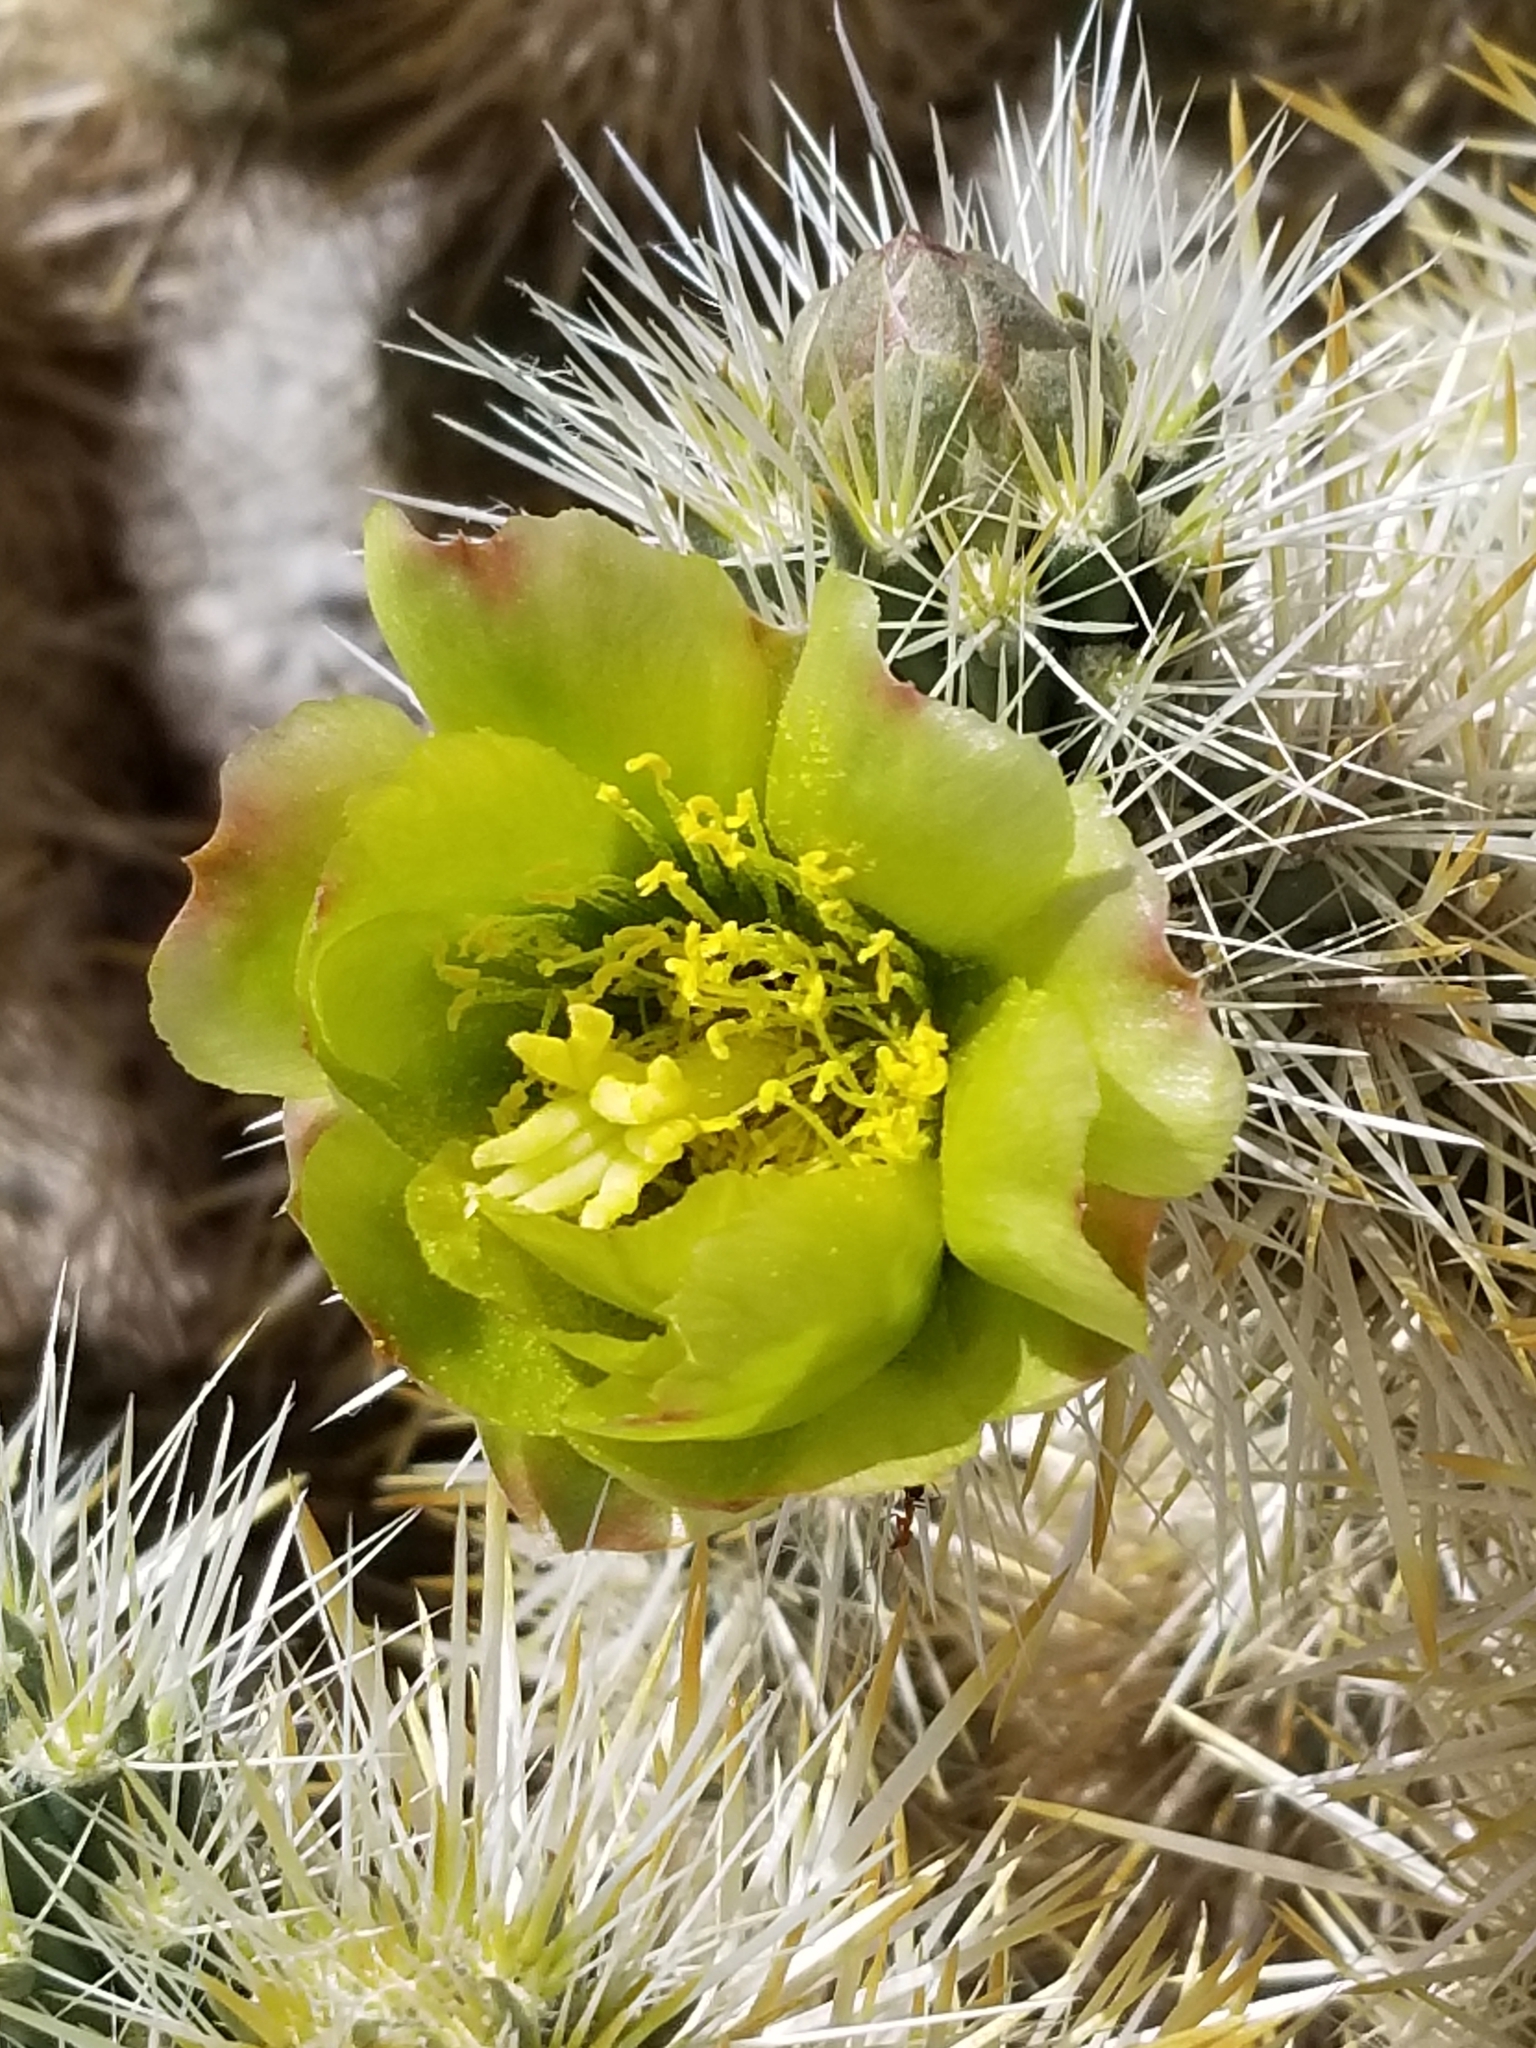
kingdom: Plantae
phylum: Tracheophyta
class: Magnoliopsida
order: Caryophyllales
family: Cactaceae
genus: Cylindropuntia
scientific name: Cylindropuntia echinocarpa
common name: Ground cholla
